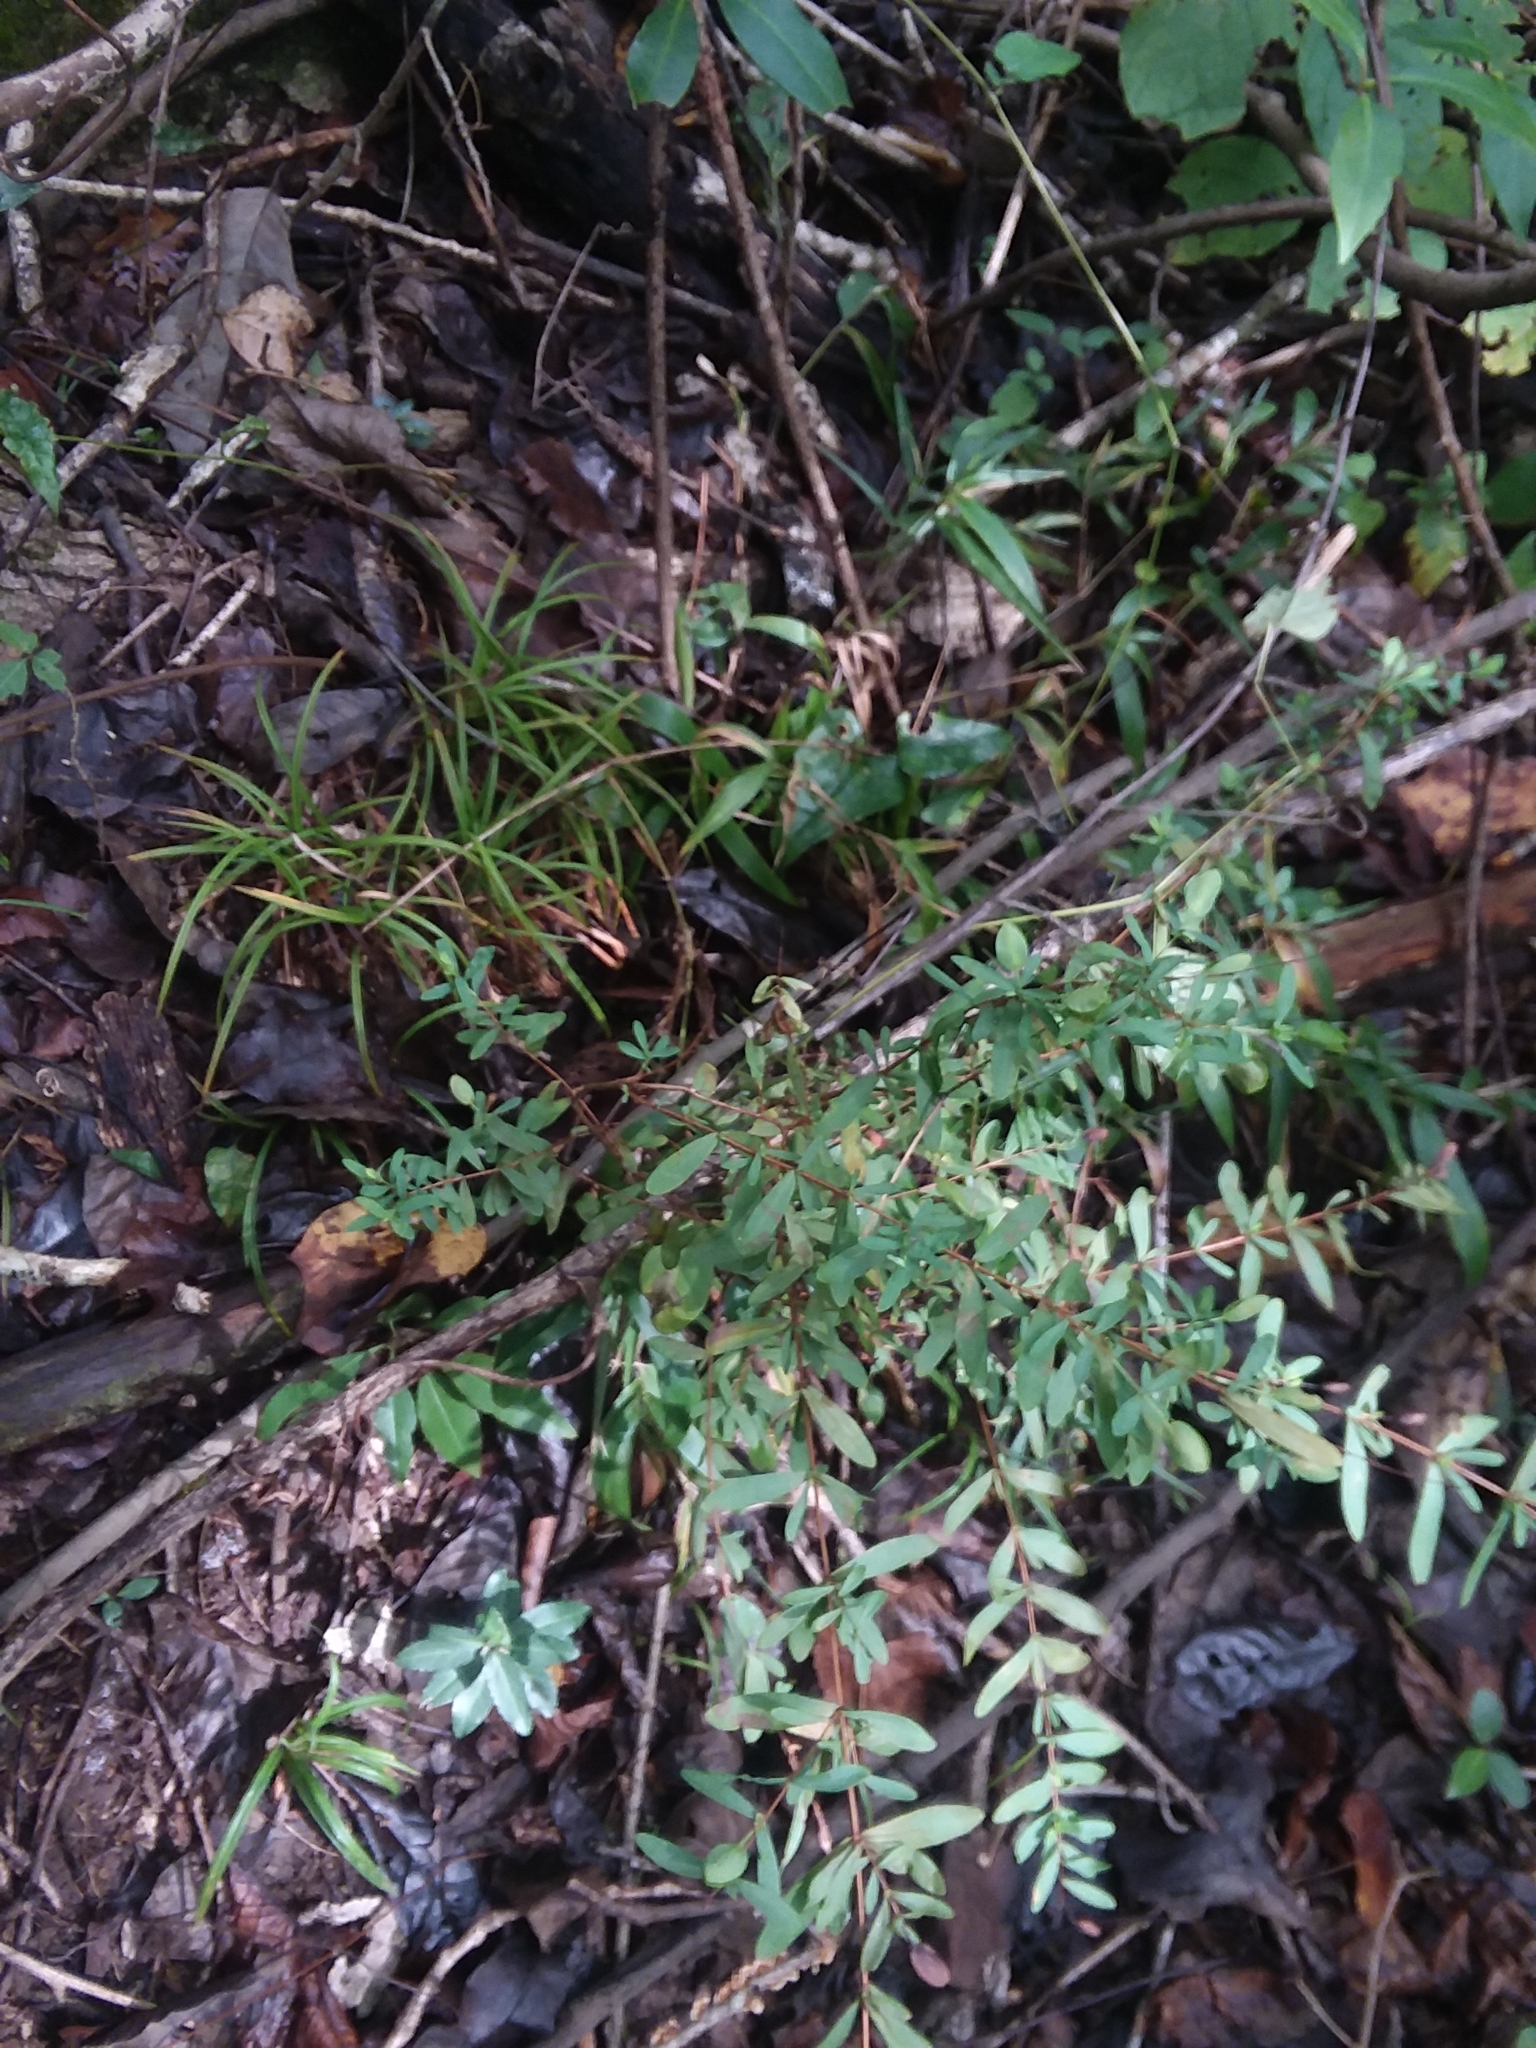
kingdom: Plantae
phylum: Tracheophyta
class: Magnoliopsida
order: Malpighiales
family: Hypericaceae
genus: Hypericum
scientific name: Hypericum hypericoides
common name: St. andrew's cross
